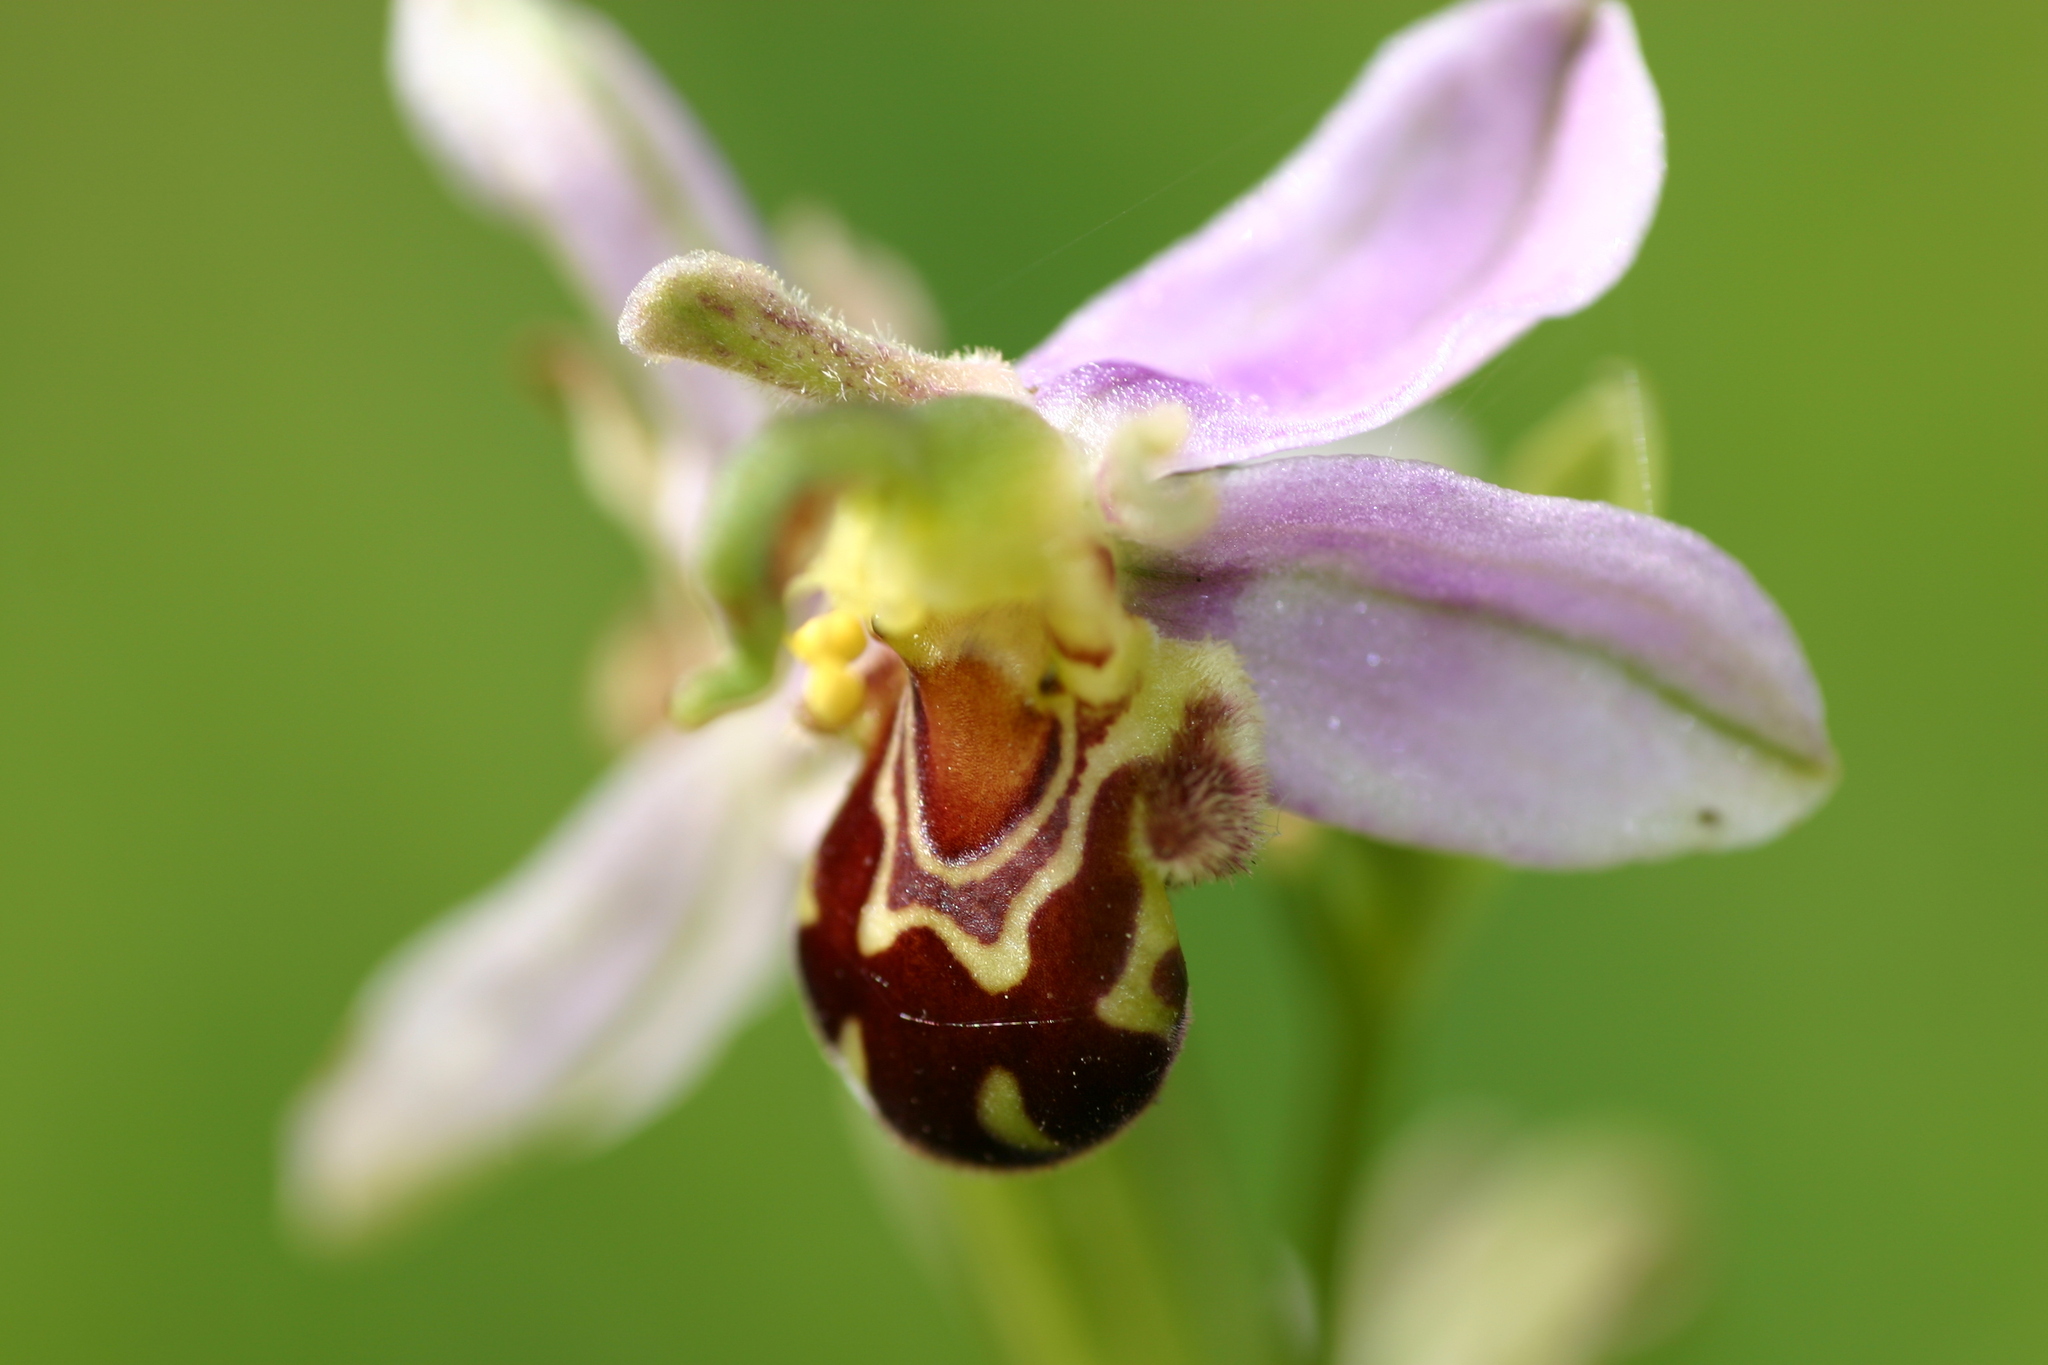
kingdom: Plantae
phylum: Tracheophyta
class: Liliopsida
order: Asparagales
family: Orchidaceae
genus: Ophrys
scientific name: Ophrys apifera
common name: Bee orchid
